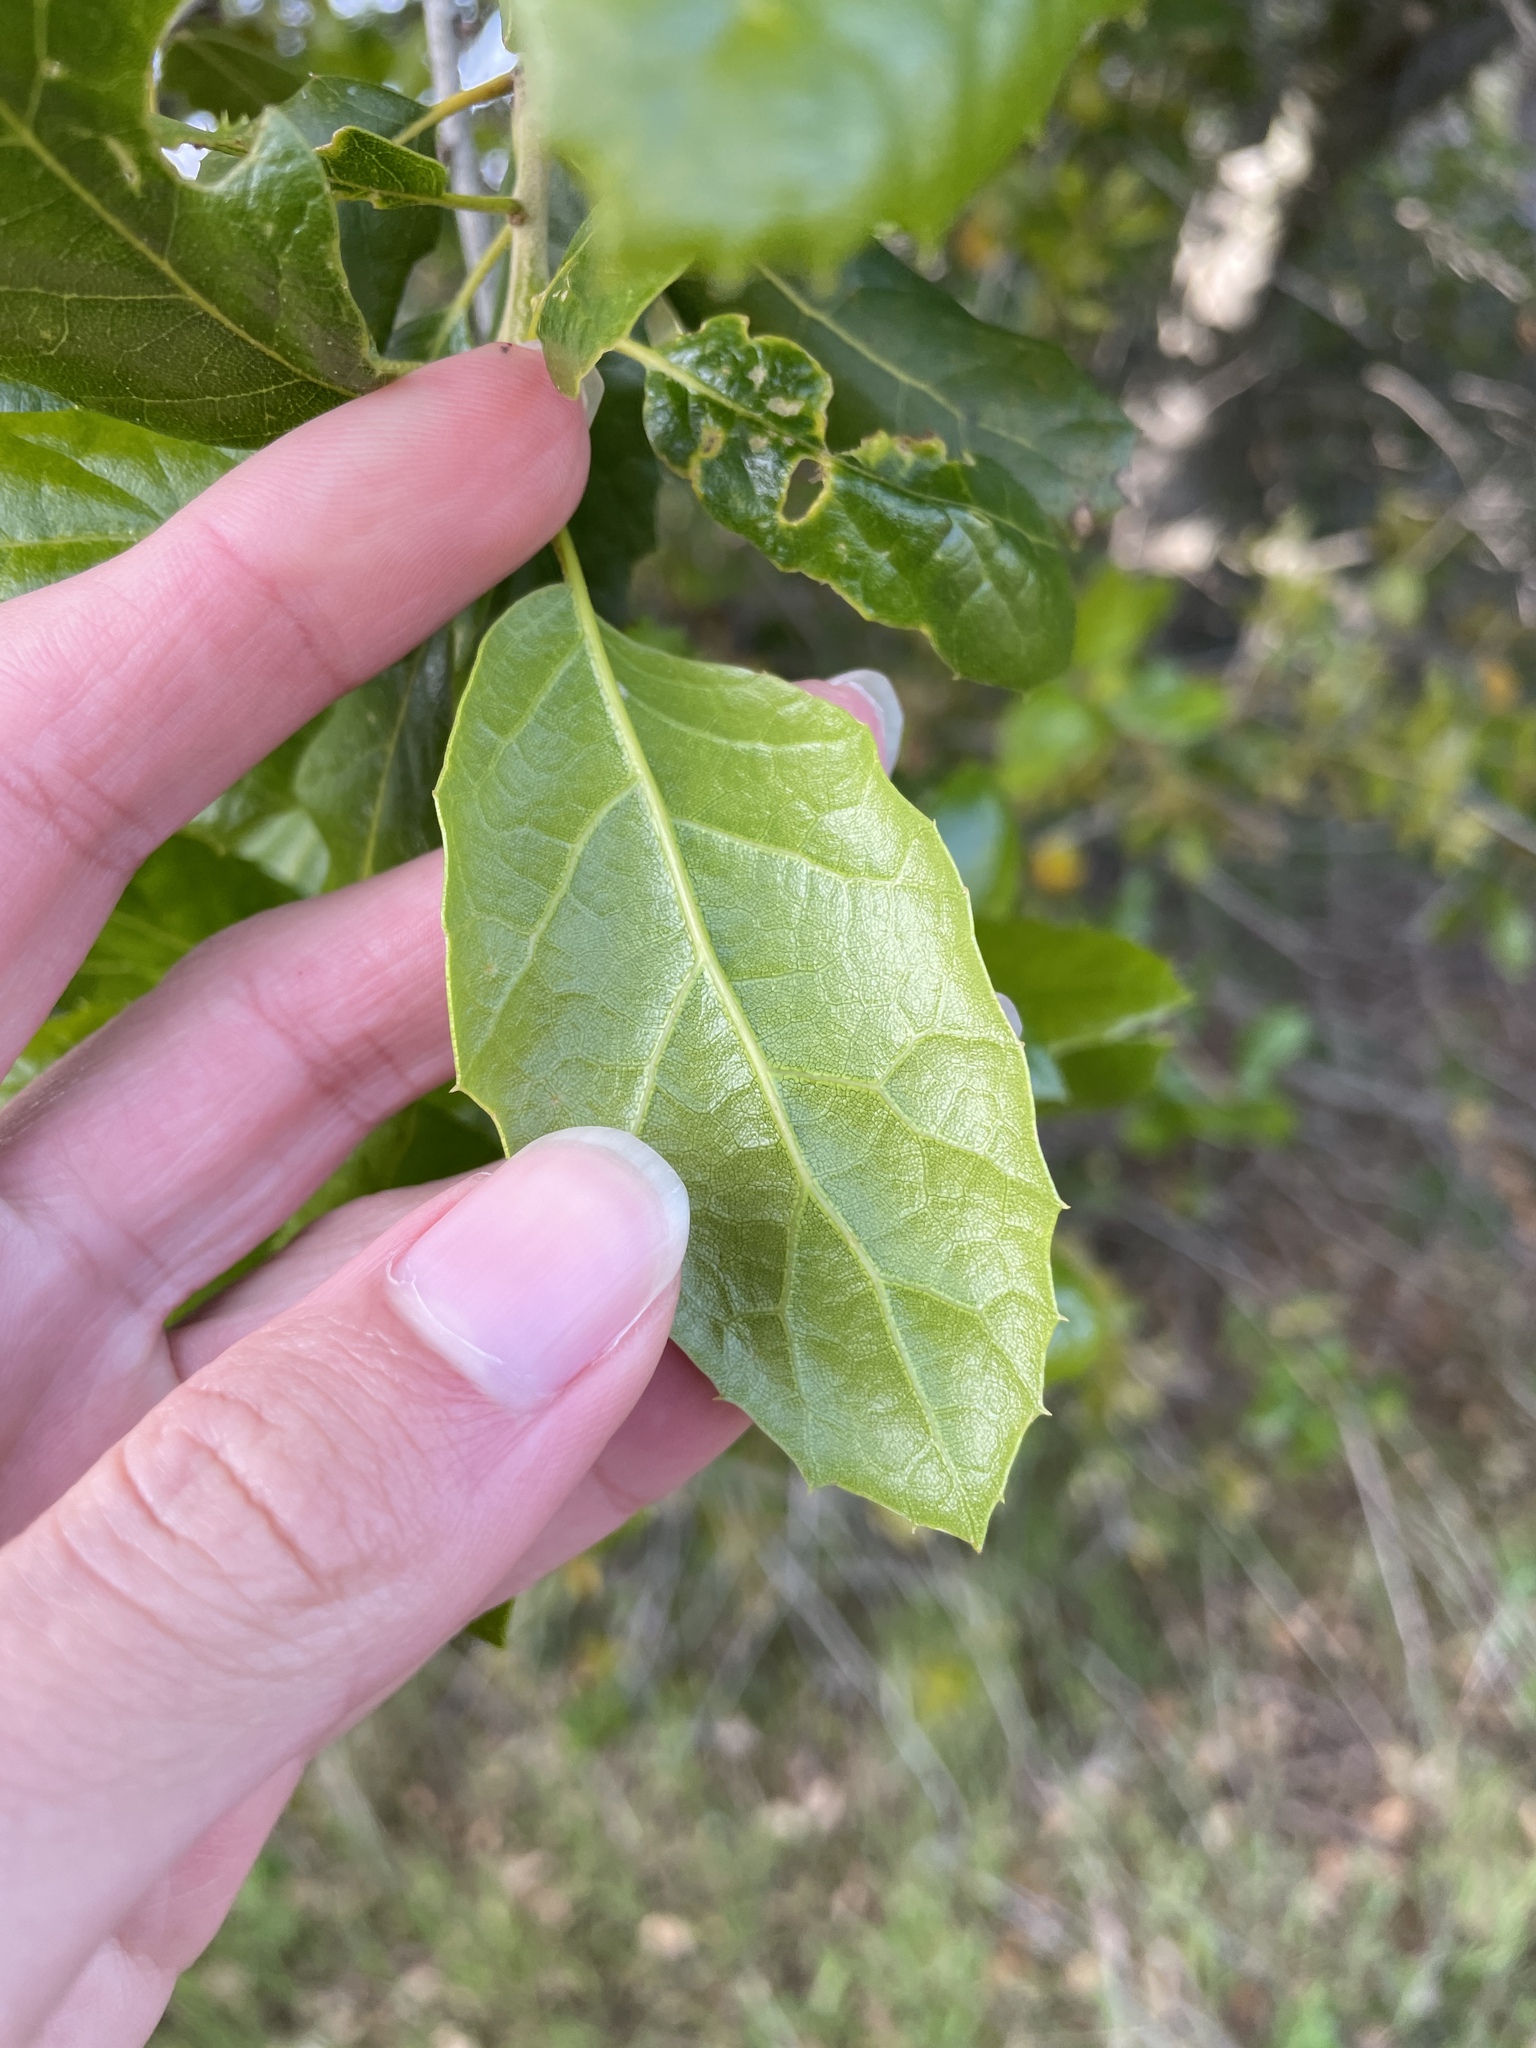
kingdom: Plantae
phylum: Tracheophyta
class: Magnoliopsida
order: Fagales
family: Fagaceae
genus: Quercus
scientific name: Quercus agrifolia
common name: California live oak
